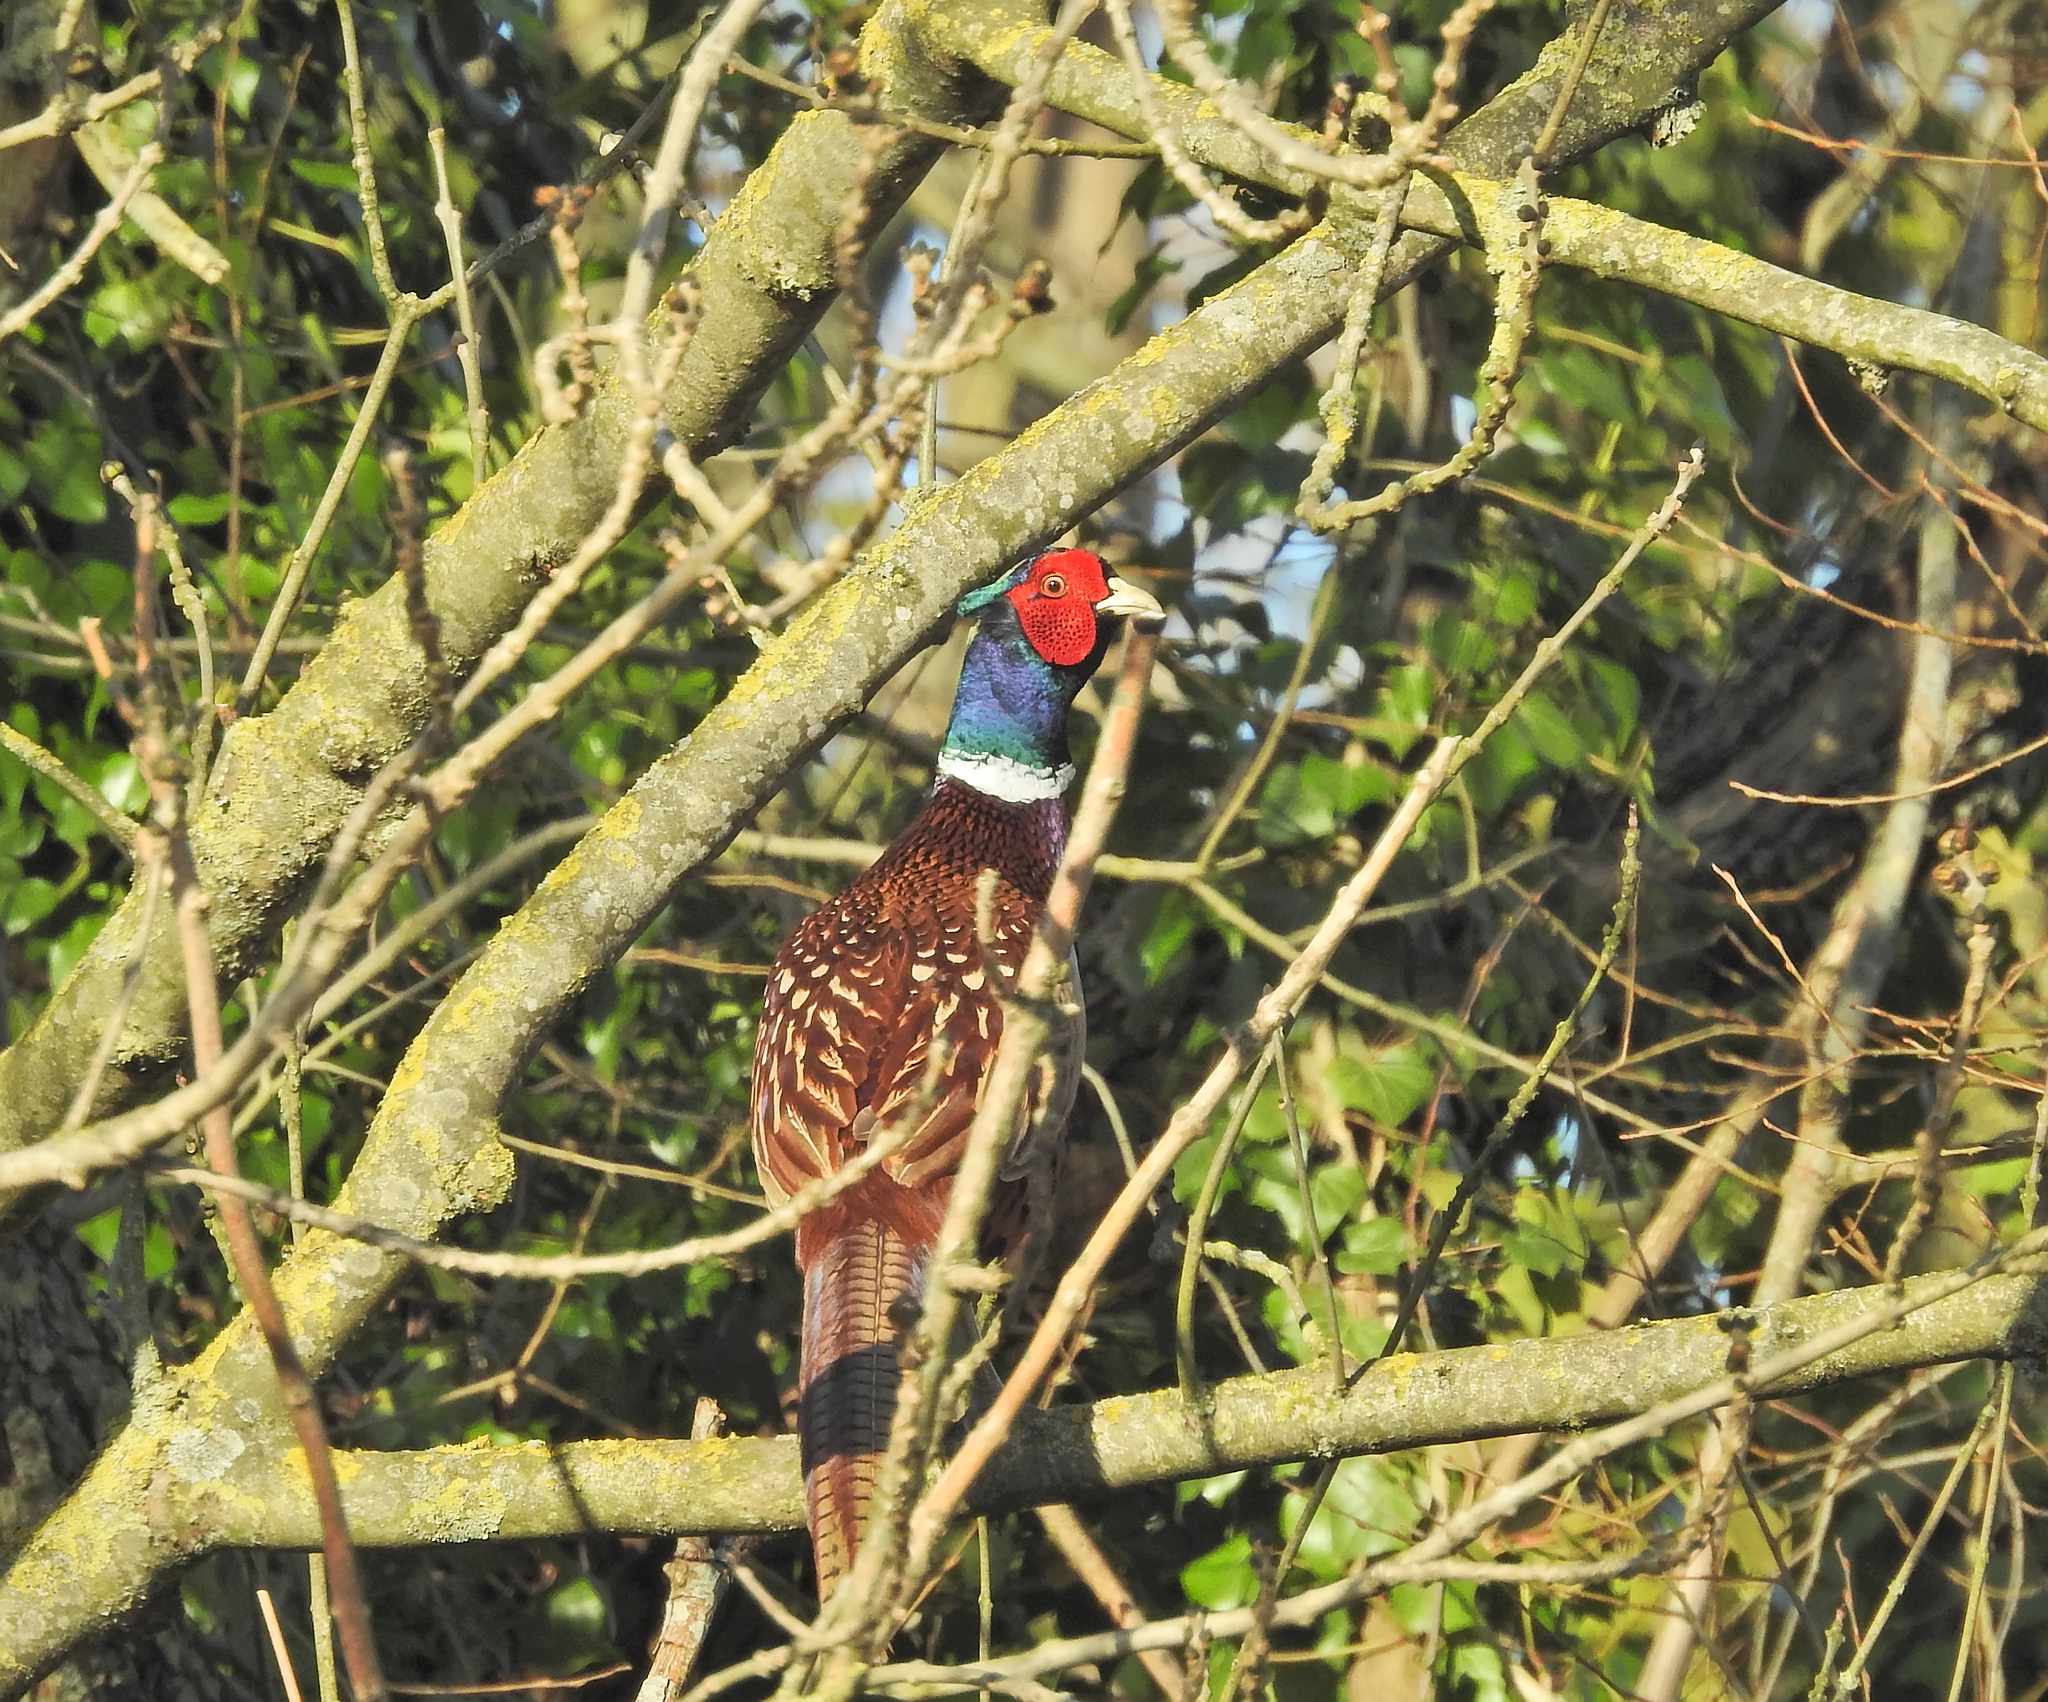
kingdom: Animalia
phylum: Chordata
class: Aves
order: Galliformes
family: Phasianidae
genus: Phasianus
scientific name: Phasianus colchicus
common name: Common pheasant
